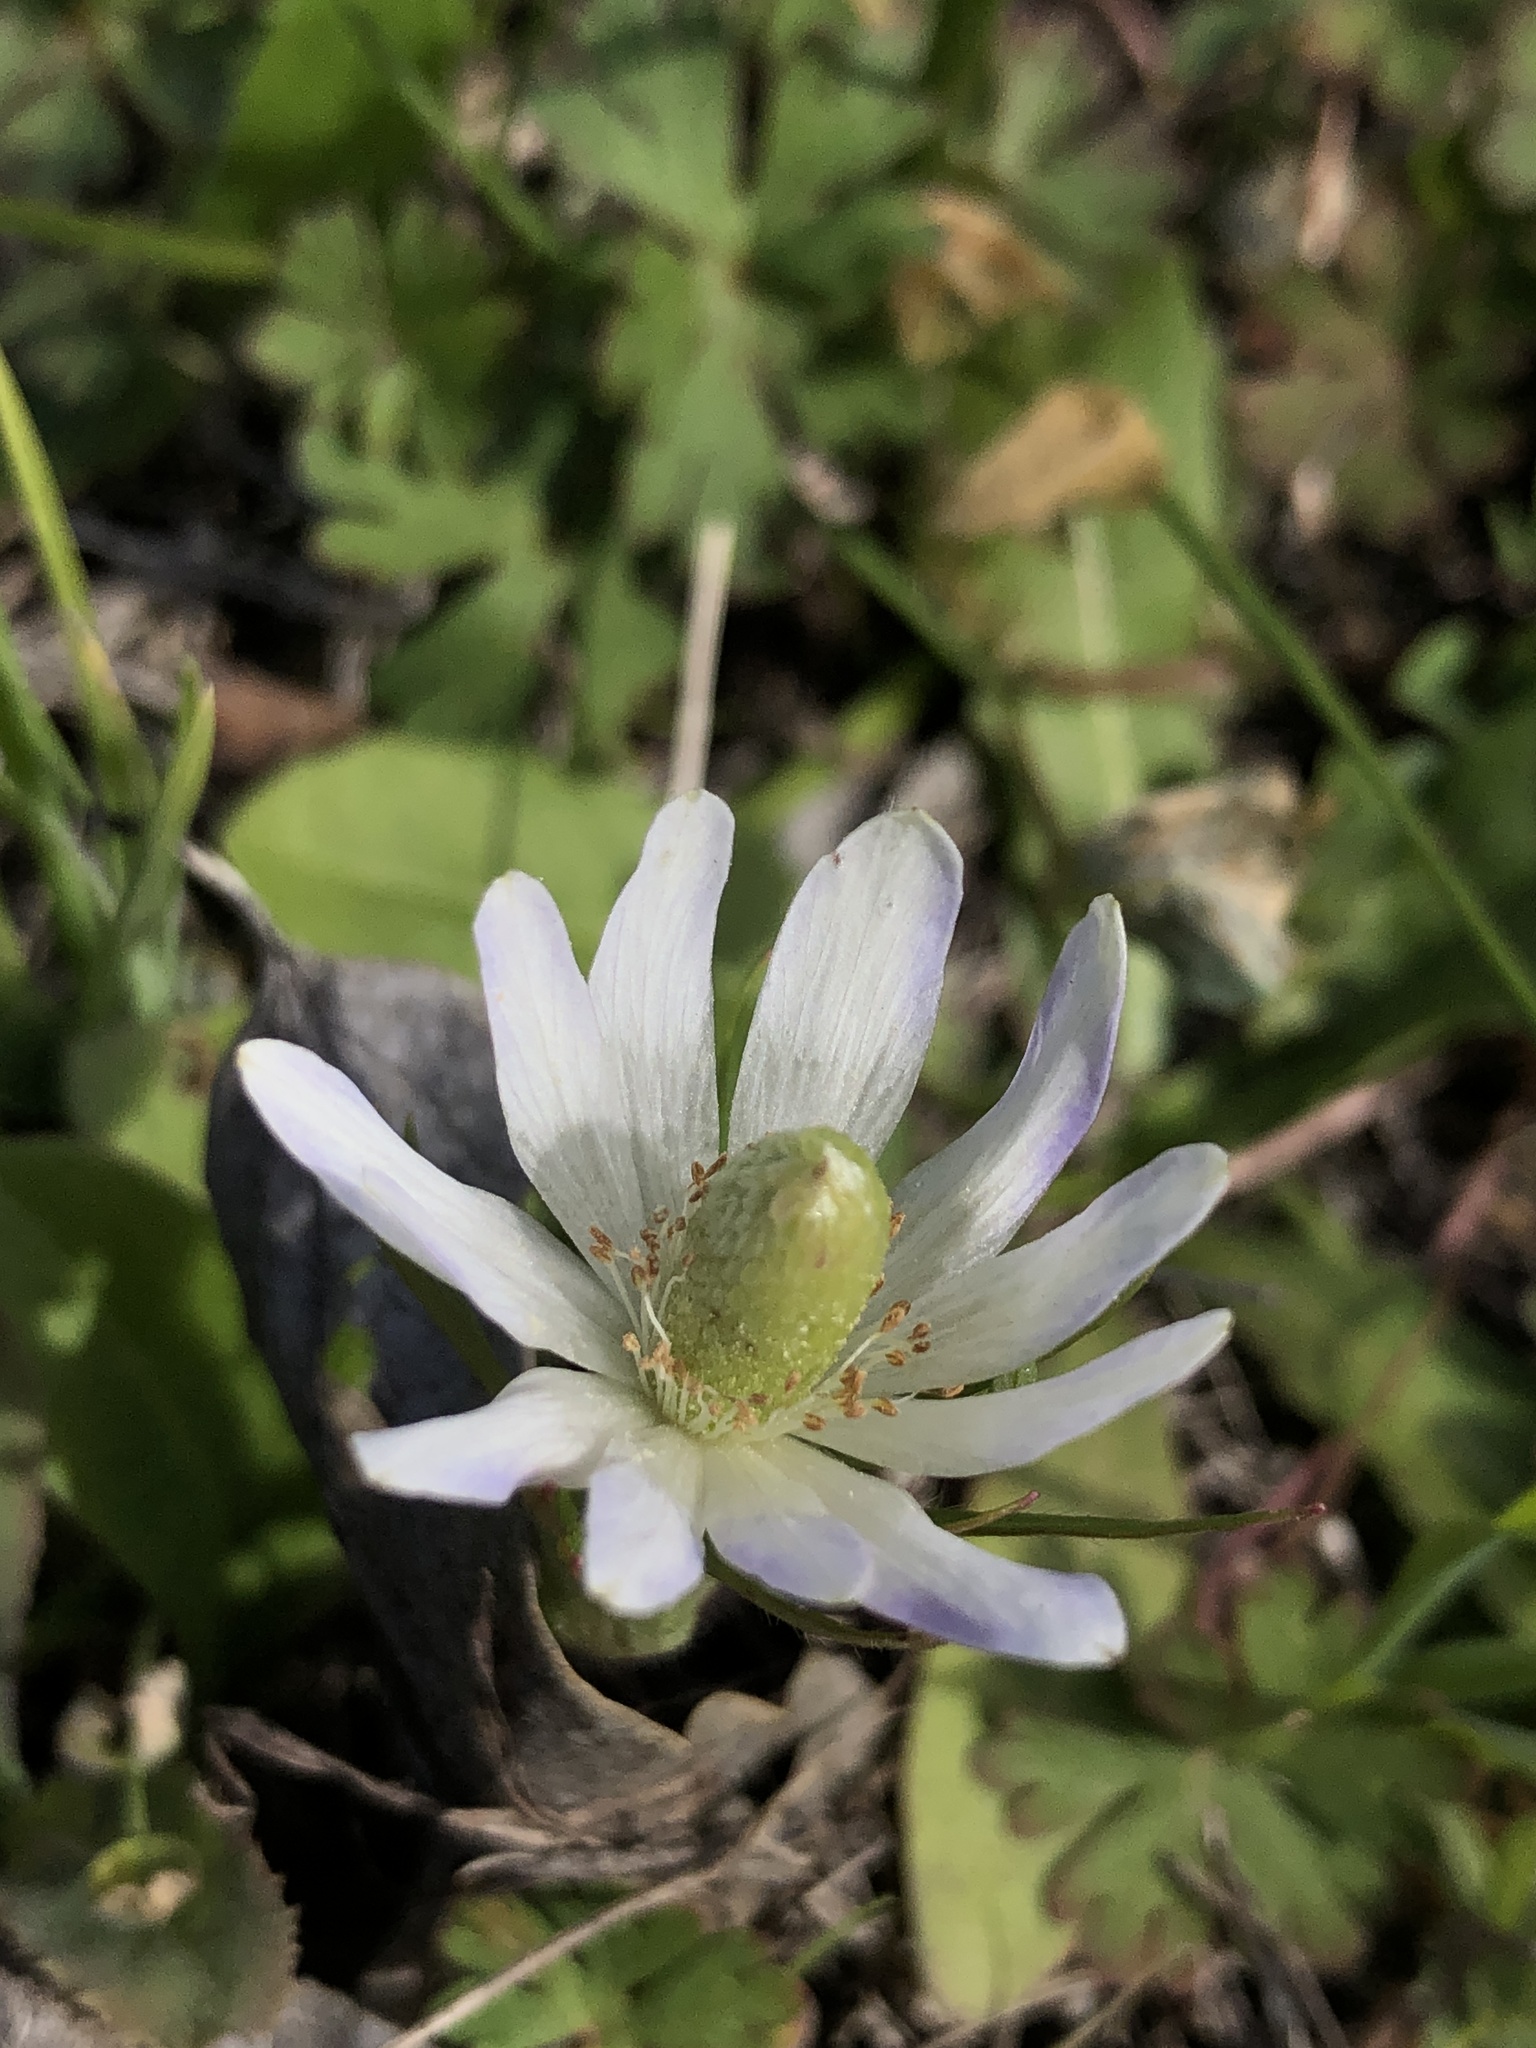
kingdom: Plantae
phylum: Tracheophyta
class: Magnoliopsida
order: Ranunculales
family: Ranunculaceae
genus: Anemone
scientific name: Anemone berlandieri
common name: Ten-petal anemone
